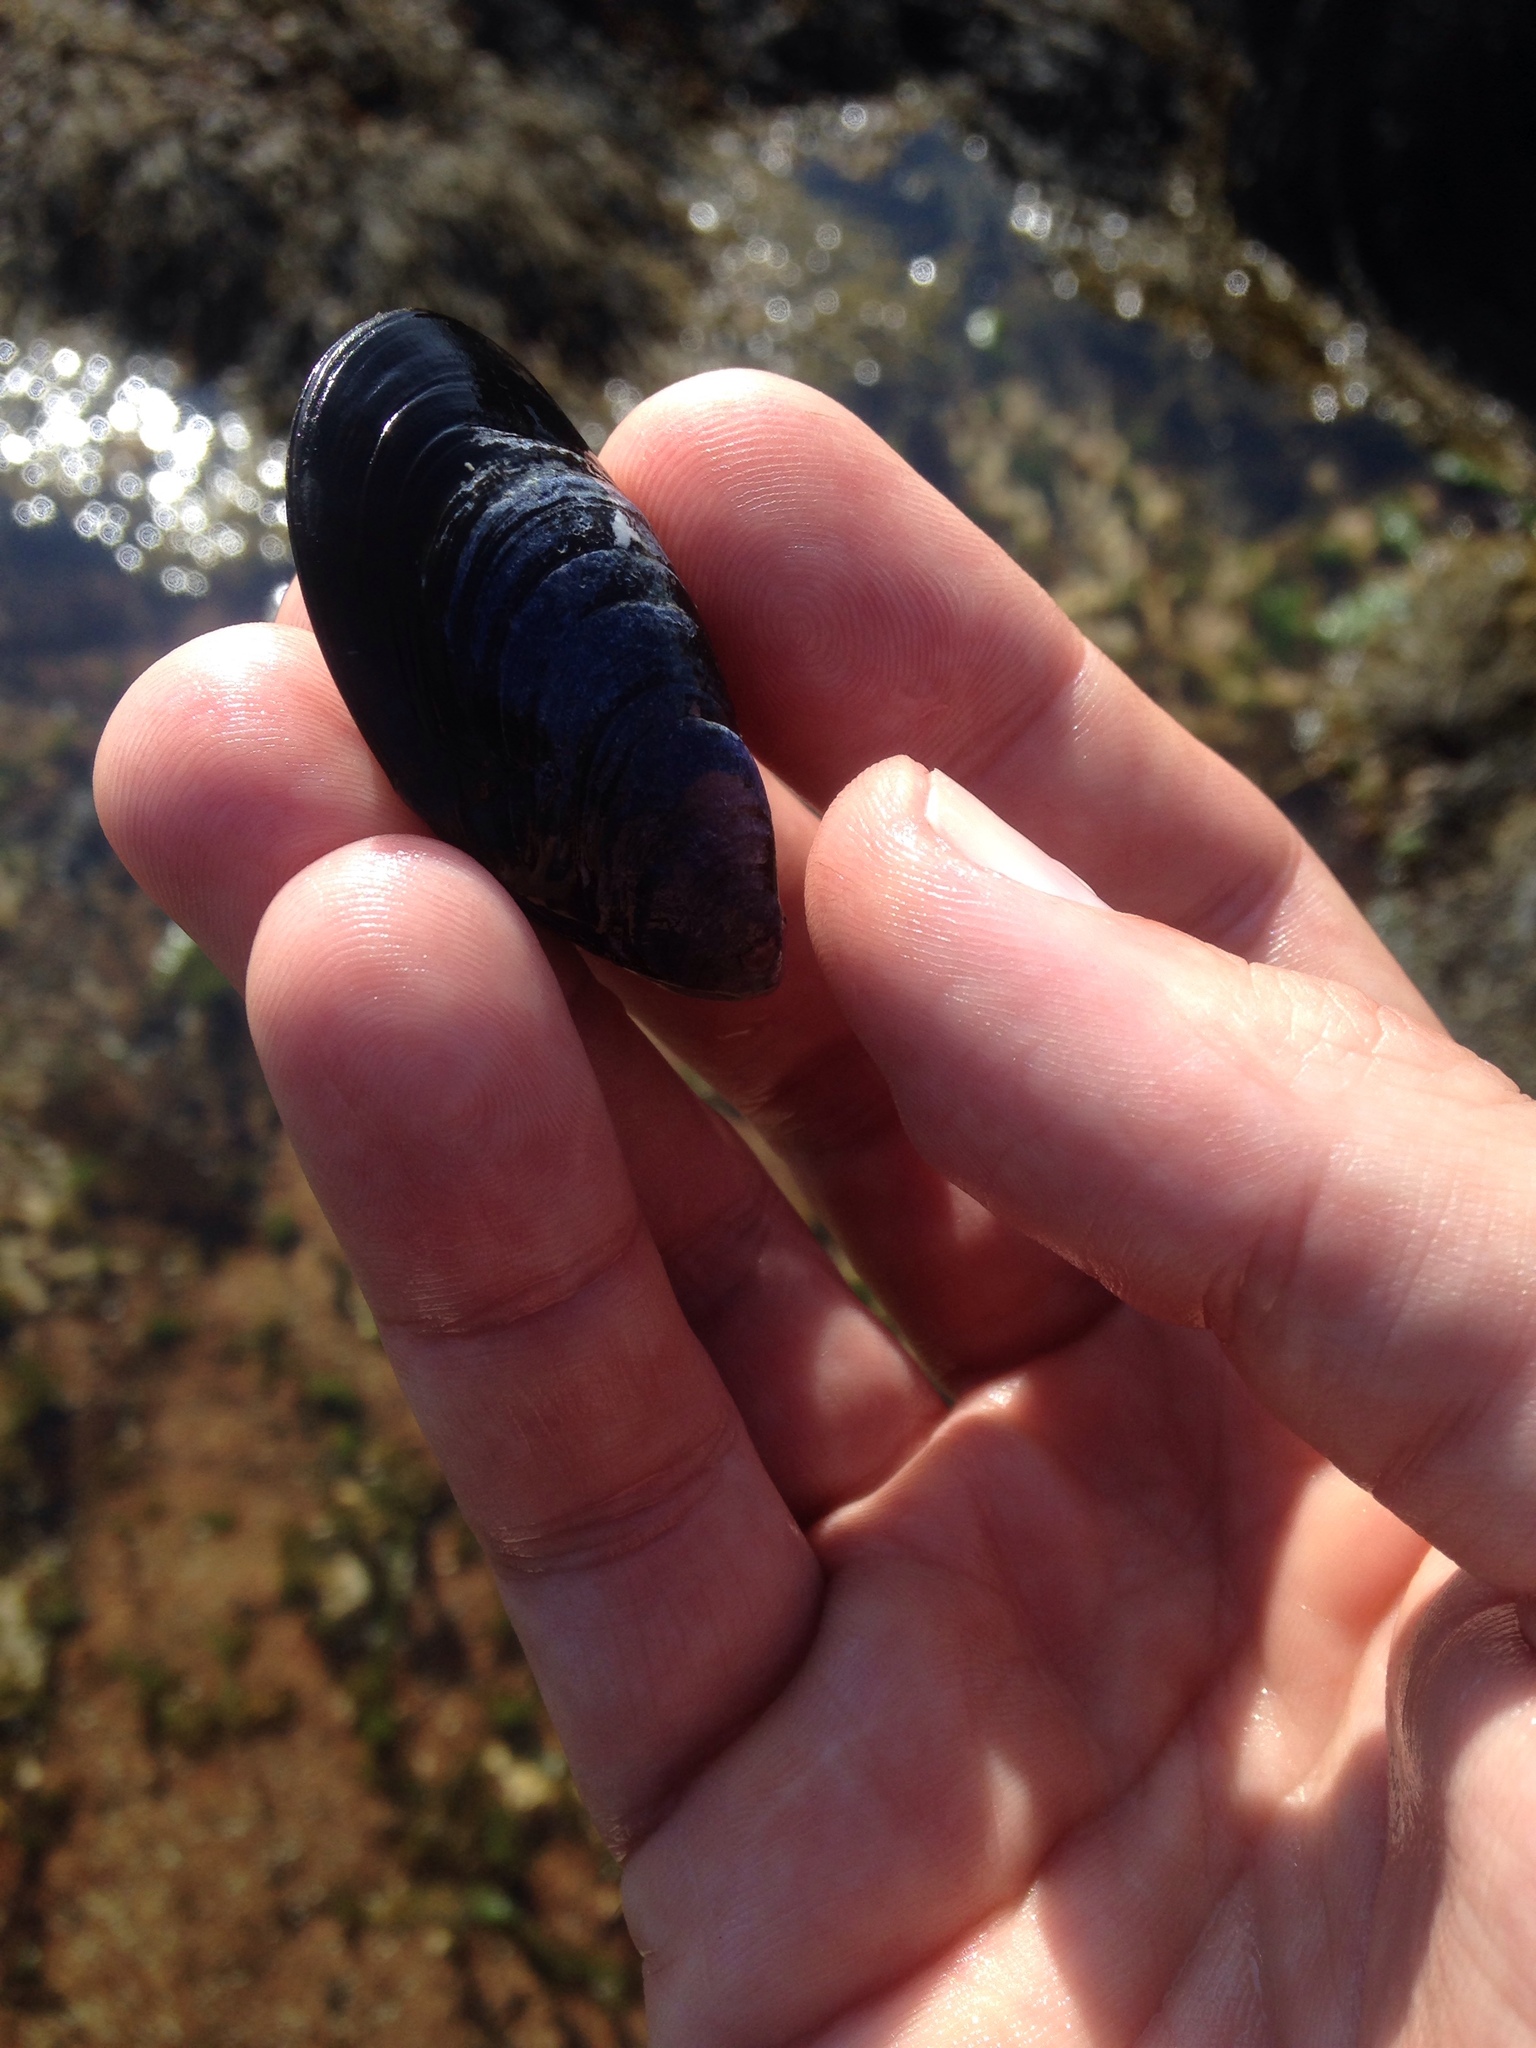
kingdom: Animalia
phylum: Mollusca
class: Bivalvia
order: Mytilida
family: Mytilidae
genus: Mytilus
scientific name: Mytilus edulis
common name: Blue mussel
